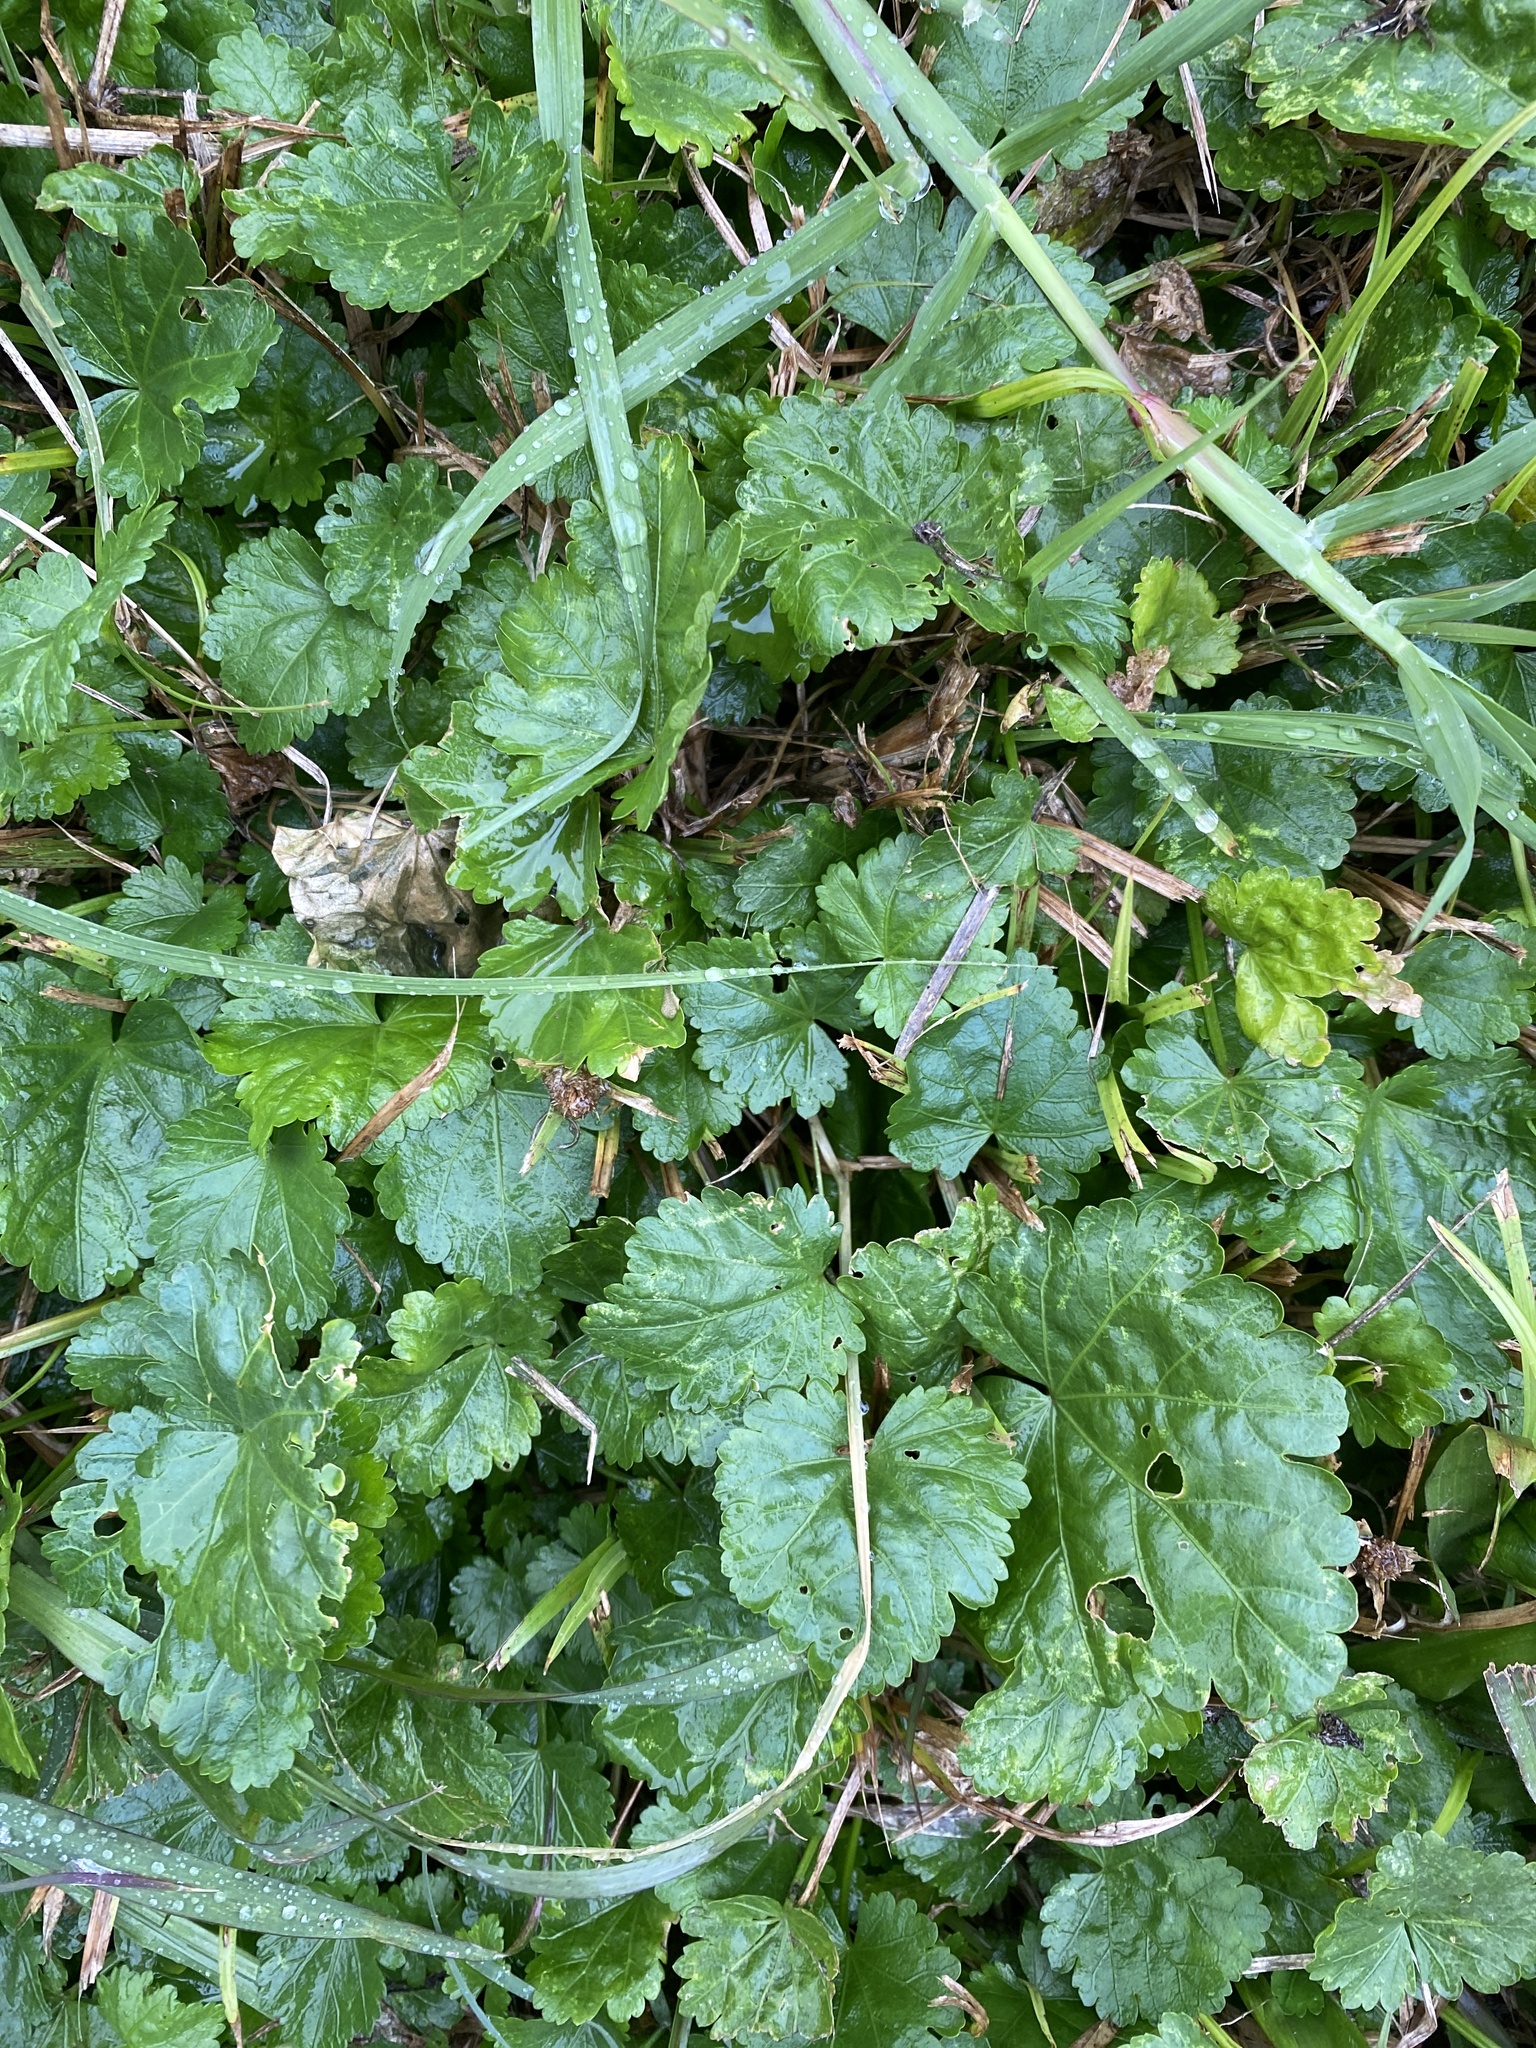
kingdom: Plantae
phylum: Tracheophyta
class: Magnoliopsida
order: Malvales
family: Malvaceae
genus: Modiola
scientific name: Modiola caroliniana
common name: Carolina bristlemallow
